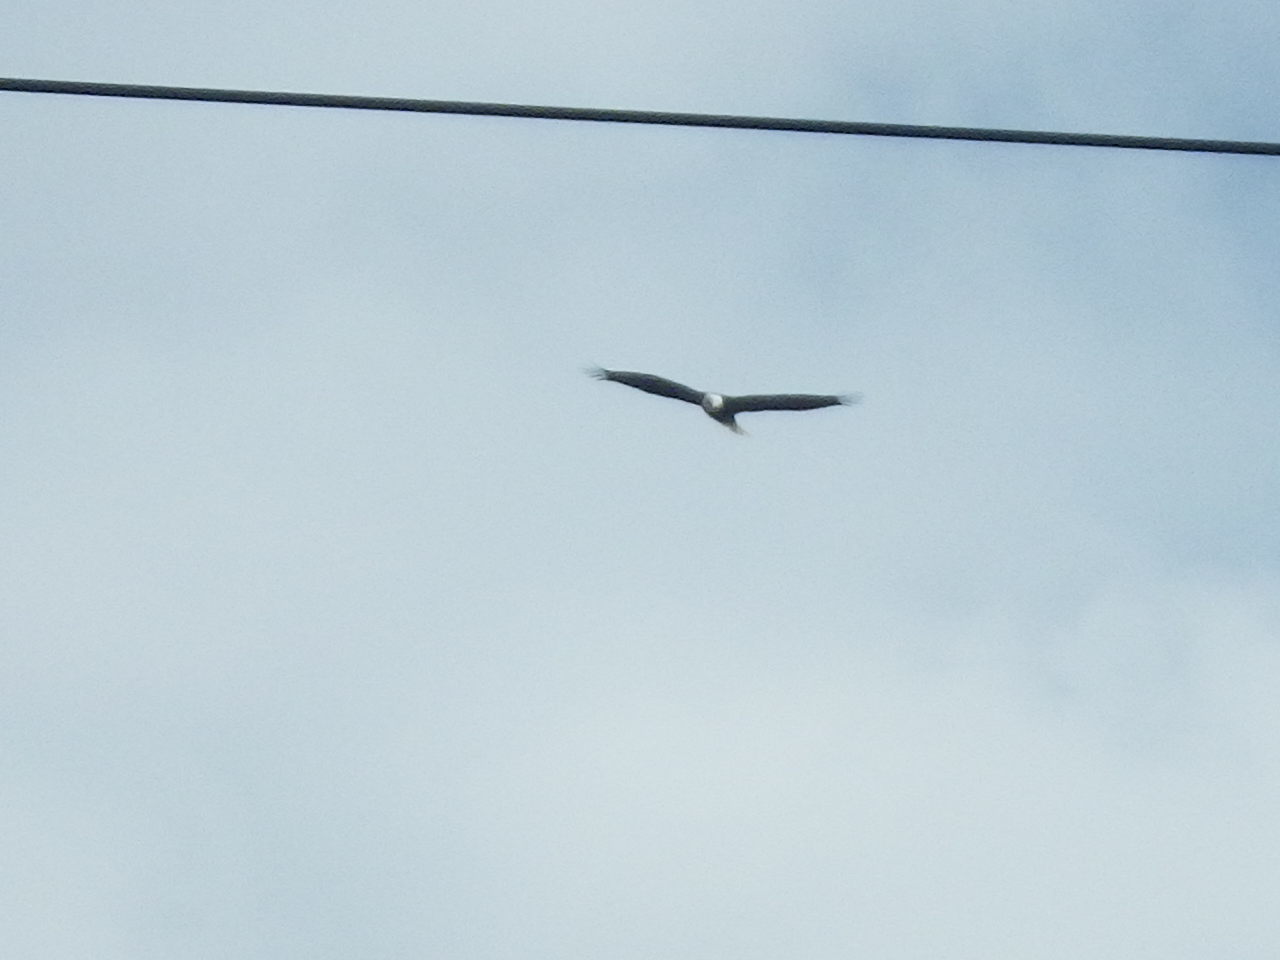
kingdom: Animalia
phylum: Chordata
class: Aves
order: Accipitriformes
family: Accipitridae
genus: Haliaeetus
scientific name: Haliaeetus leucocephalus
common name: Bald eagle
